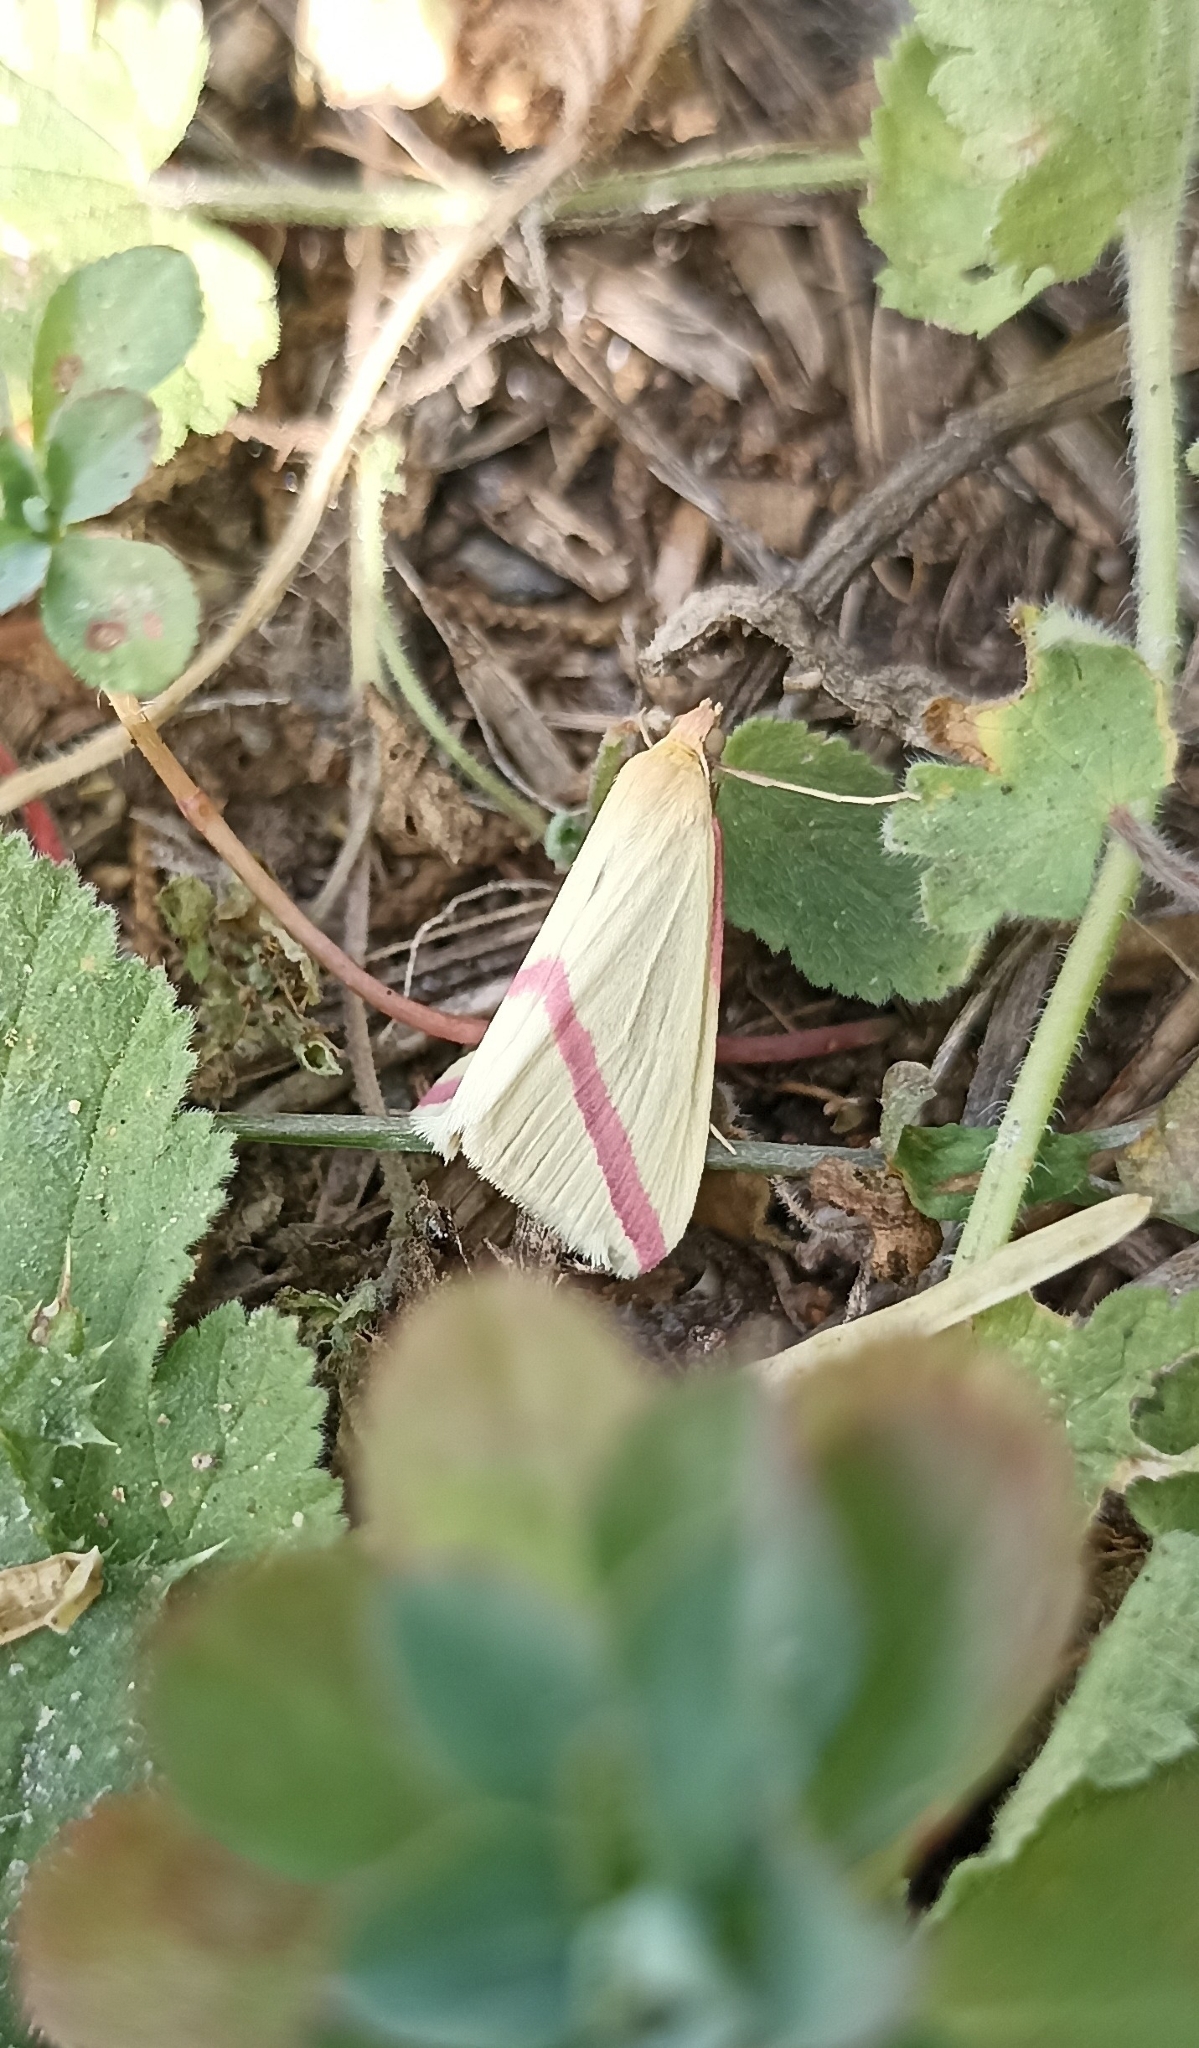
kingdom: Animalia
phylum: Arthropoda
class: Insecta
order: Lepidoptera
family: Geometridae
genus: Rhodometra
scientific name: Rhodometra sacraria
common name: Vestal
